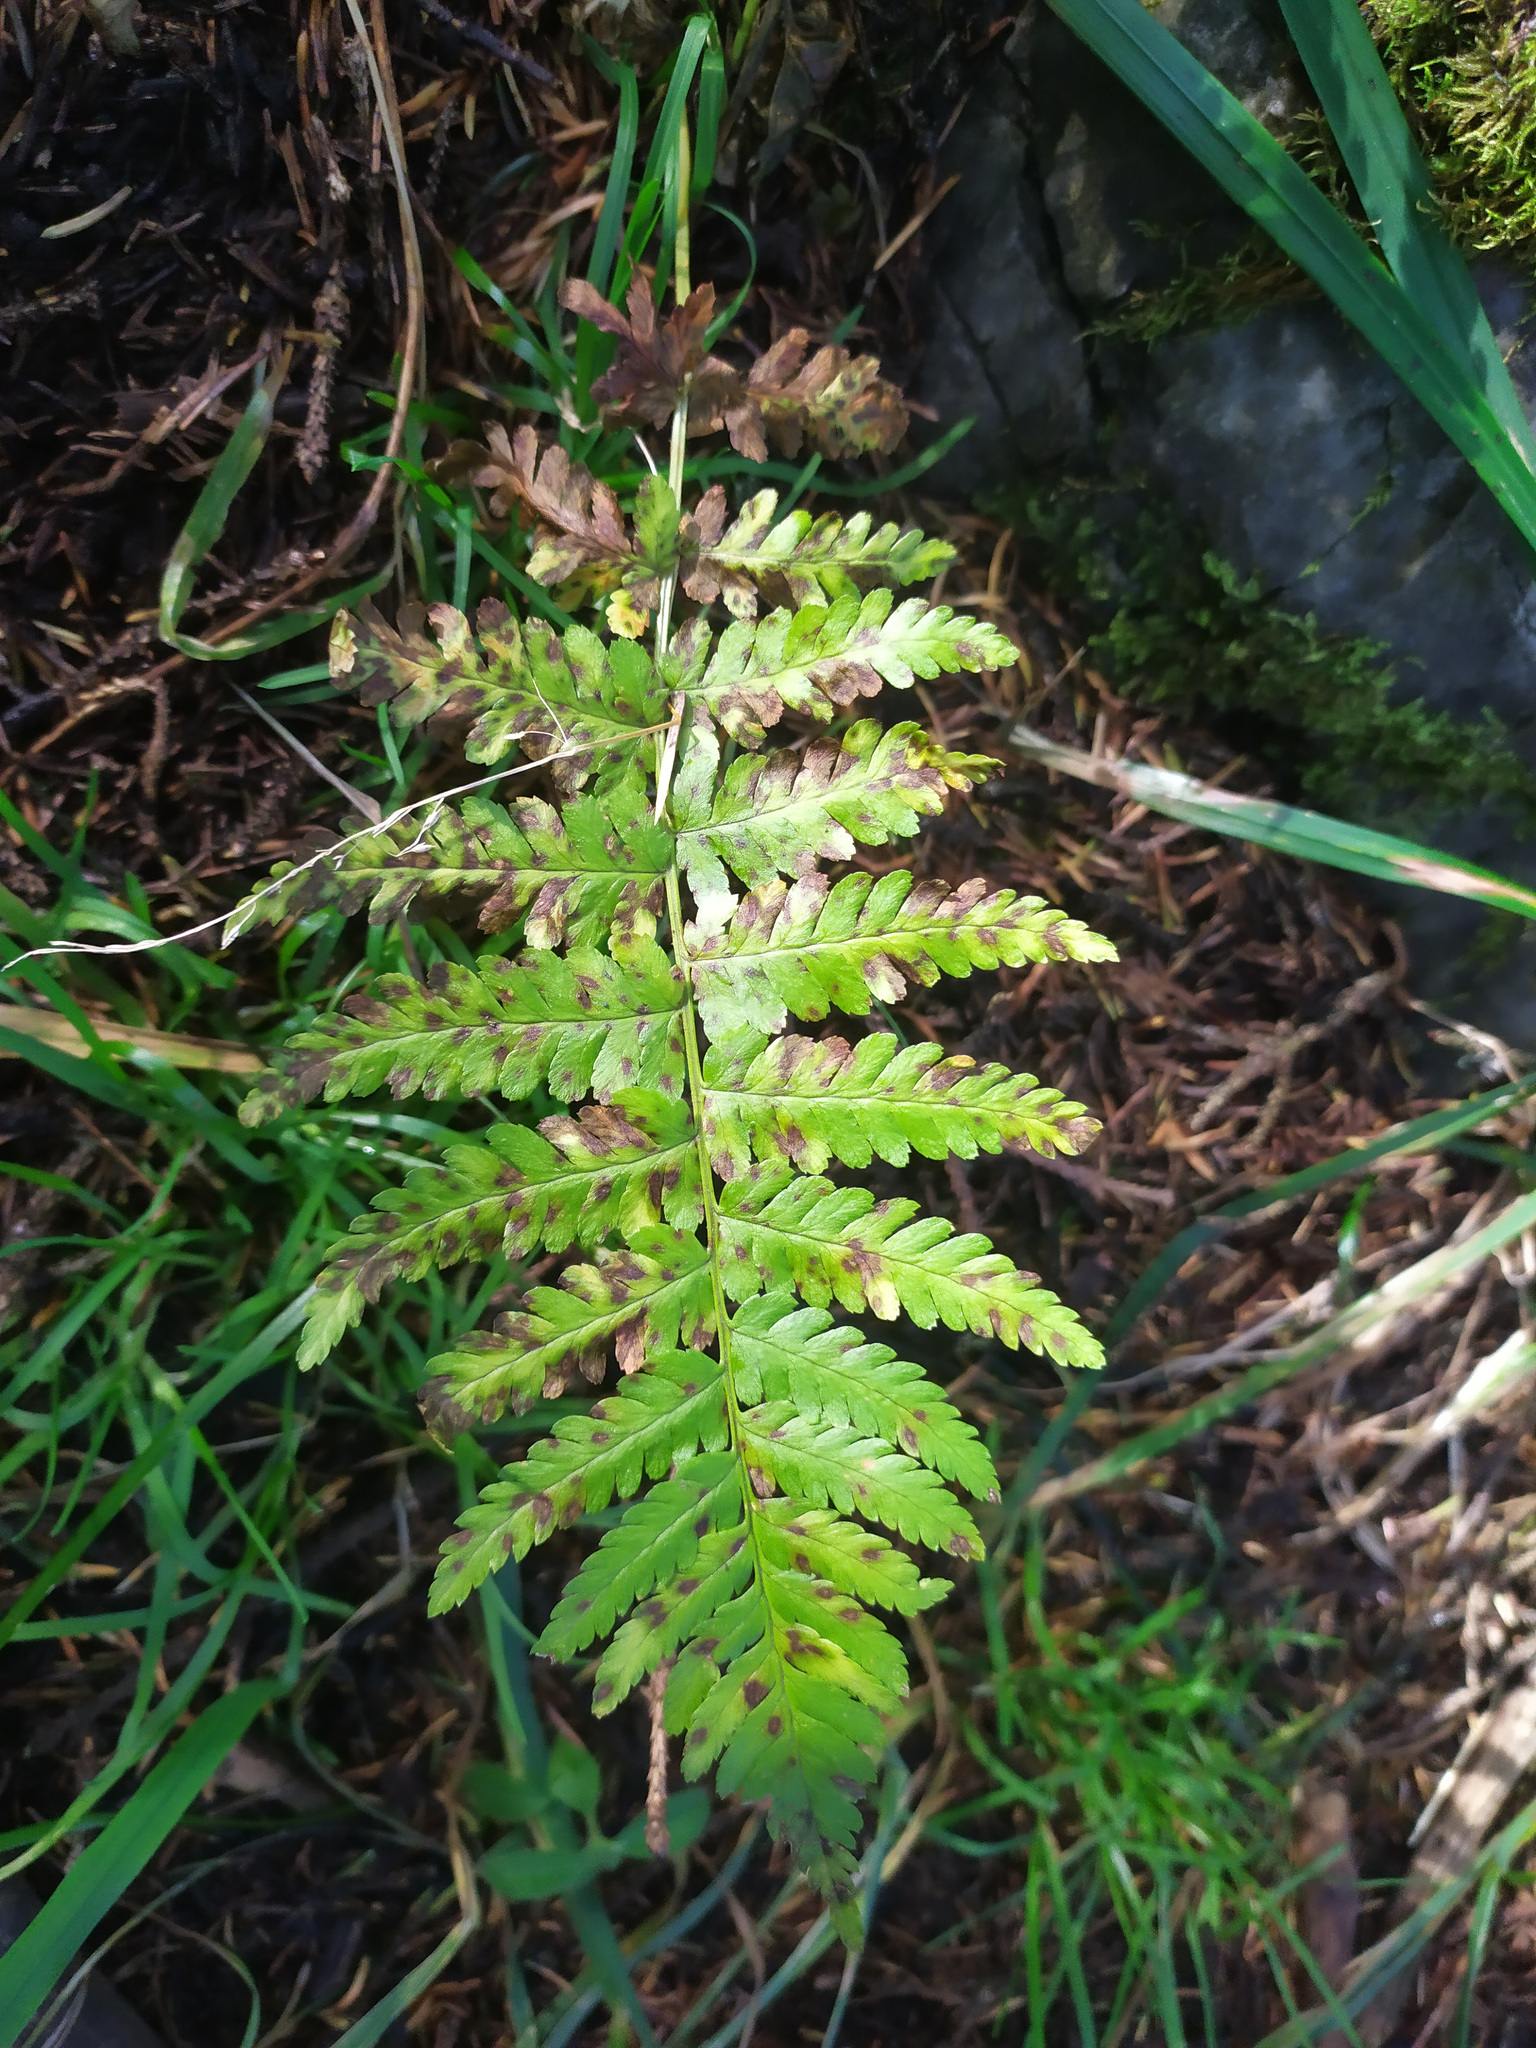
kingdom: Plantae
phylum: Tracheophyta
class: Polypodiopsida
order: Polypodiales
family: Dryopteridaceae
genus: Dryopteris
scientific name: Dryopteris filix-mas
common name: Male fern
